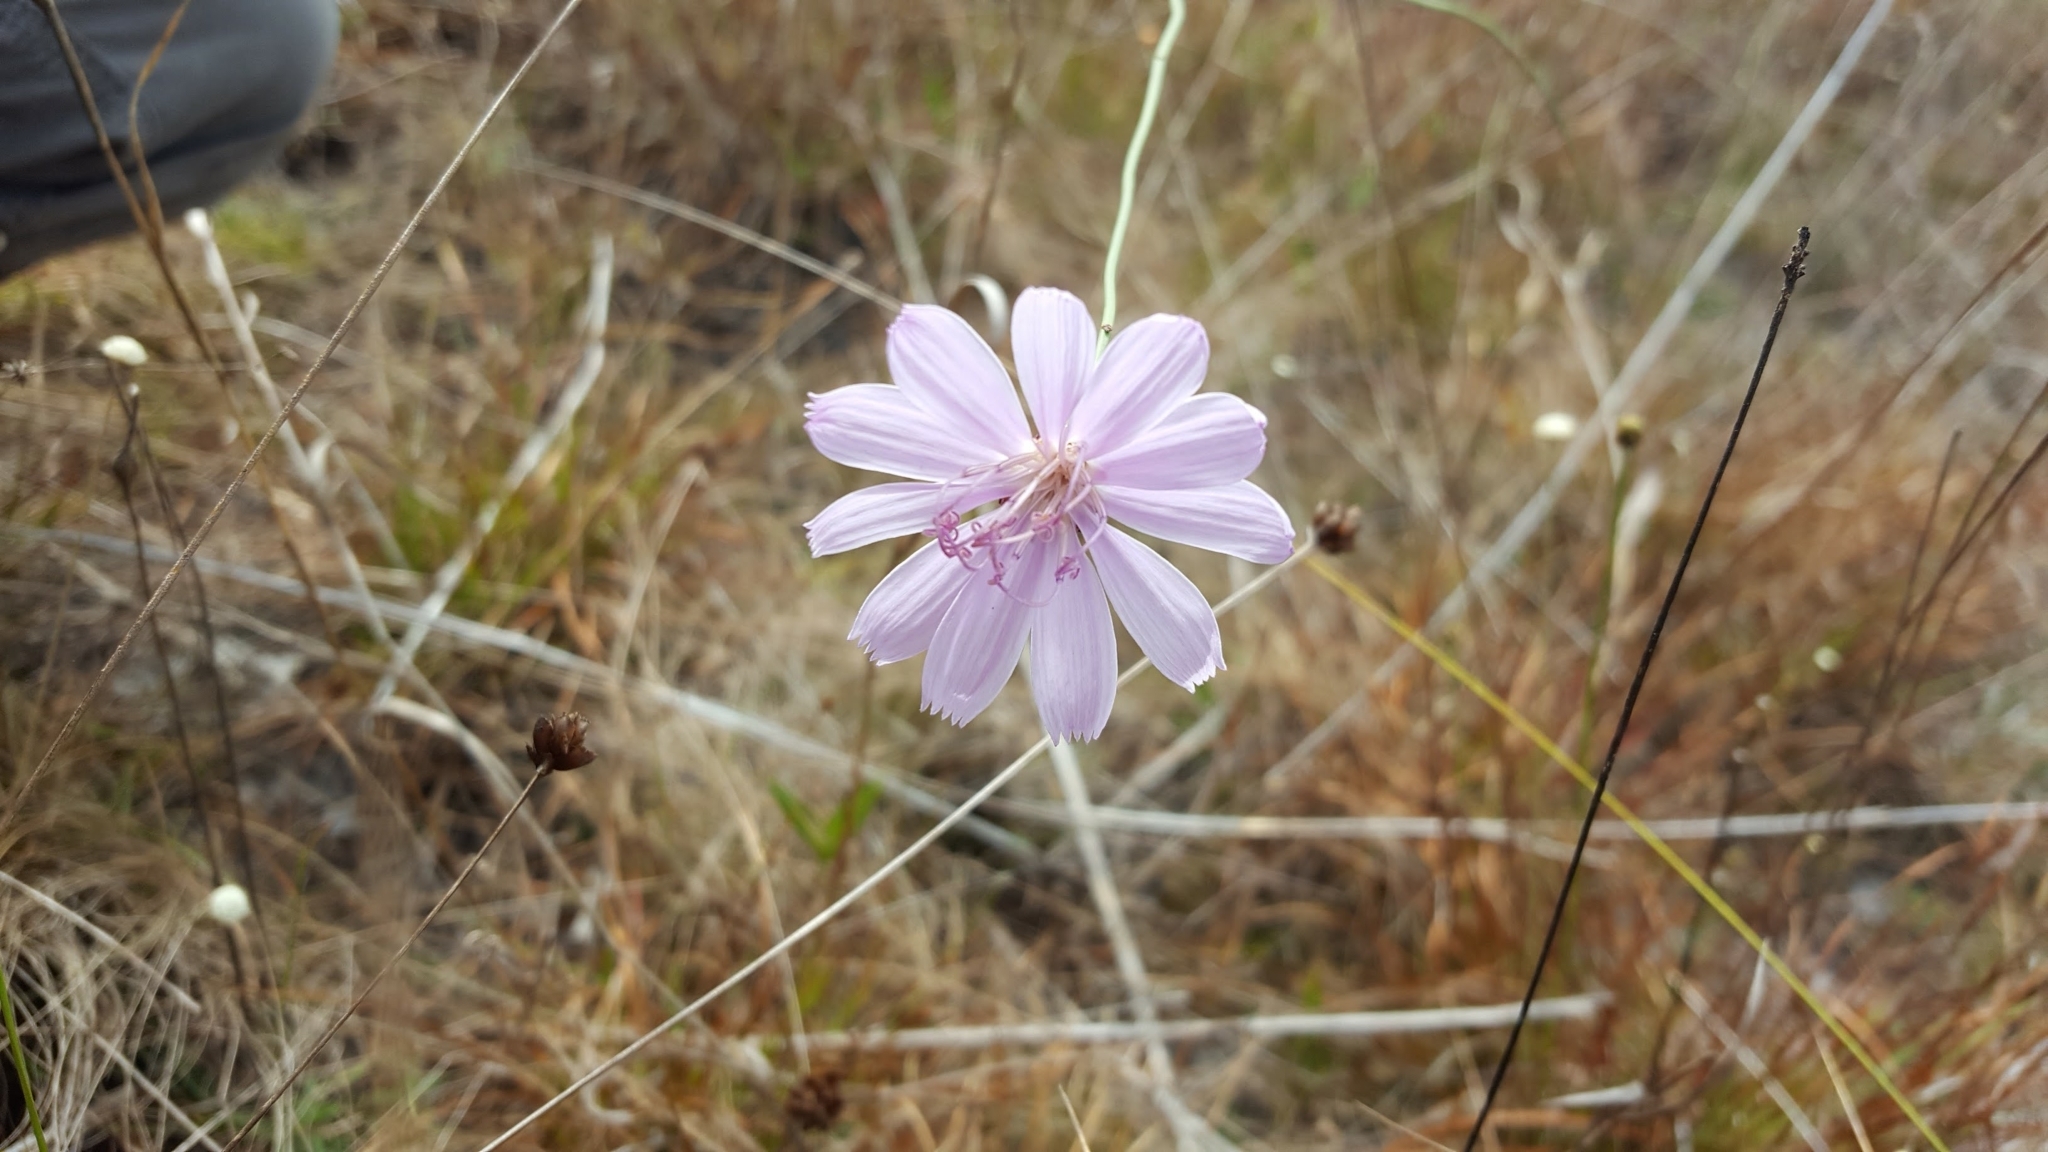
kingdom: Plantae
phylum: Tracheophyta
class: Magnoliopsida
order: Asterales
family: Asteraceae
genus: Lygodesmia
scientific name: Lygodesmia aphylla
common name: Rose-rush
